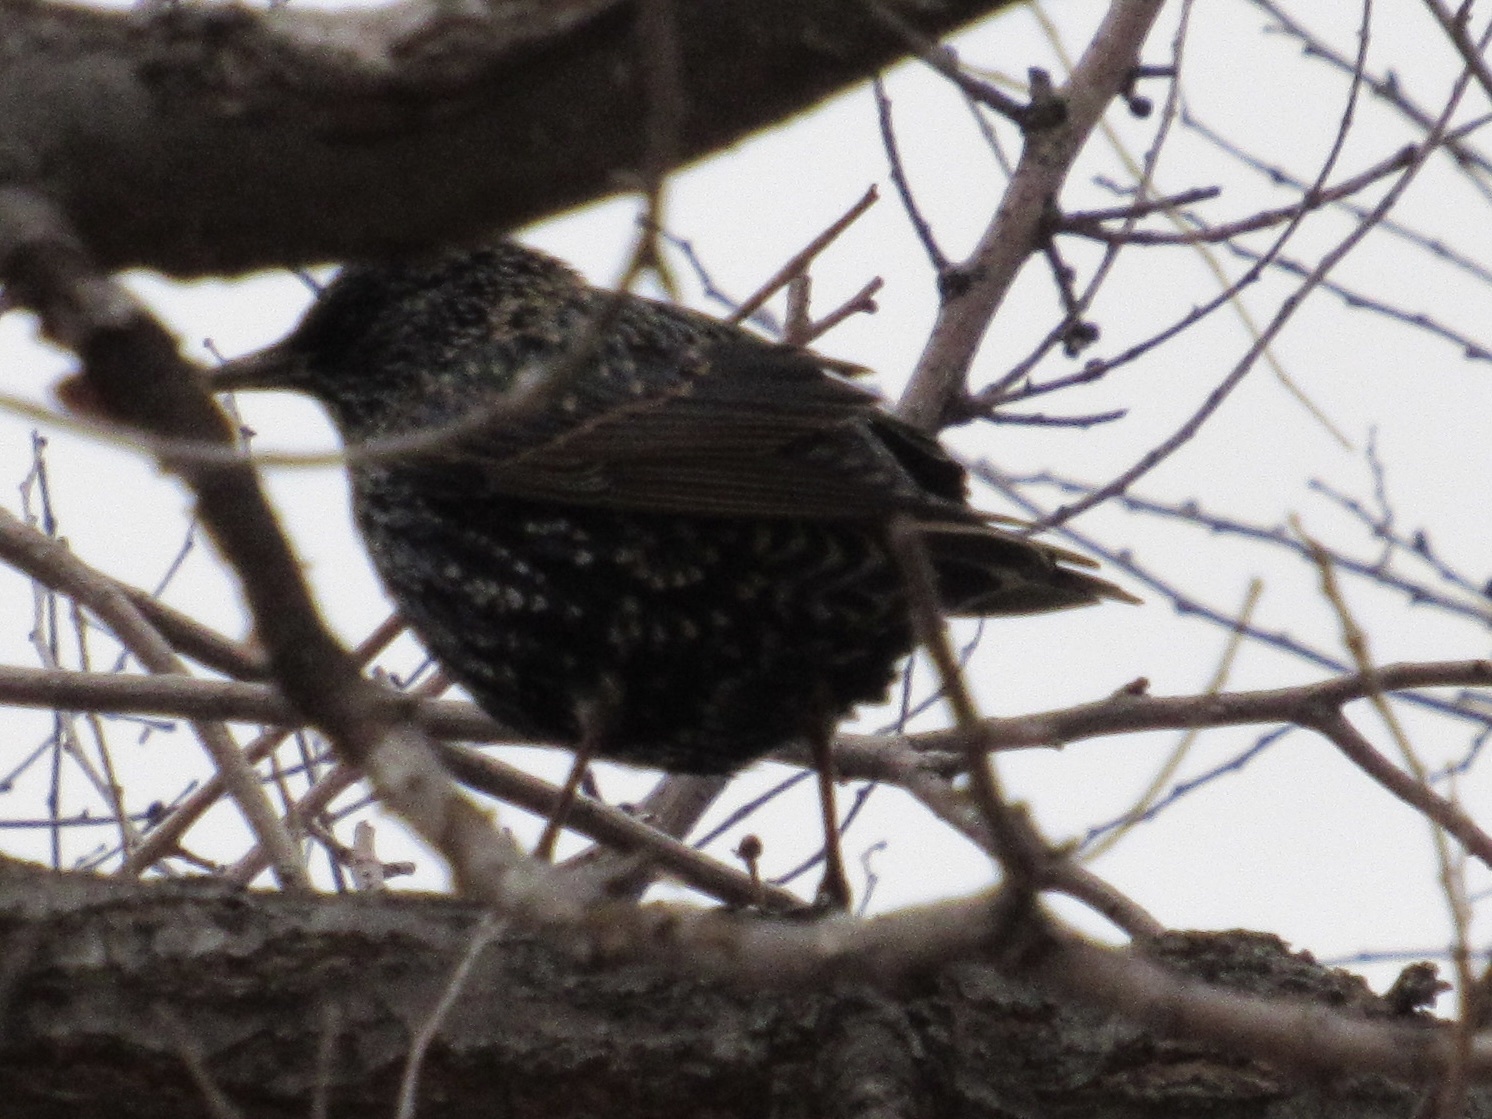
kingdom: Animalia
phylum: Chordata
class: Aves
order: Passeriformes
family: Sturnidae
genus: Sturnus
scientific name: Sturnus vulgaris
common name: Common starling
